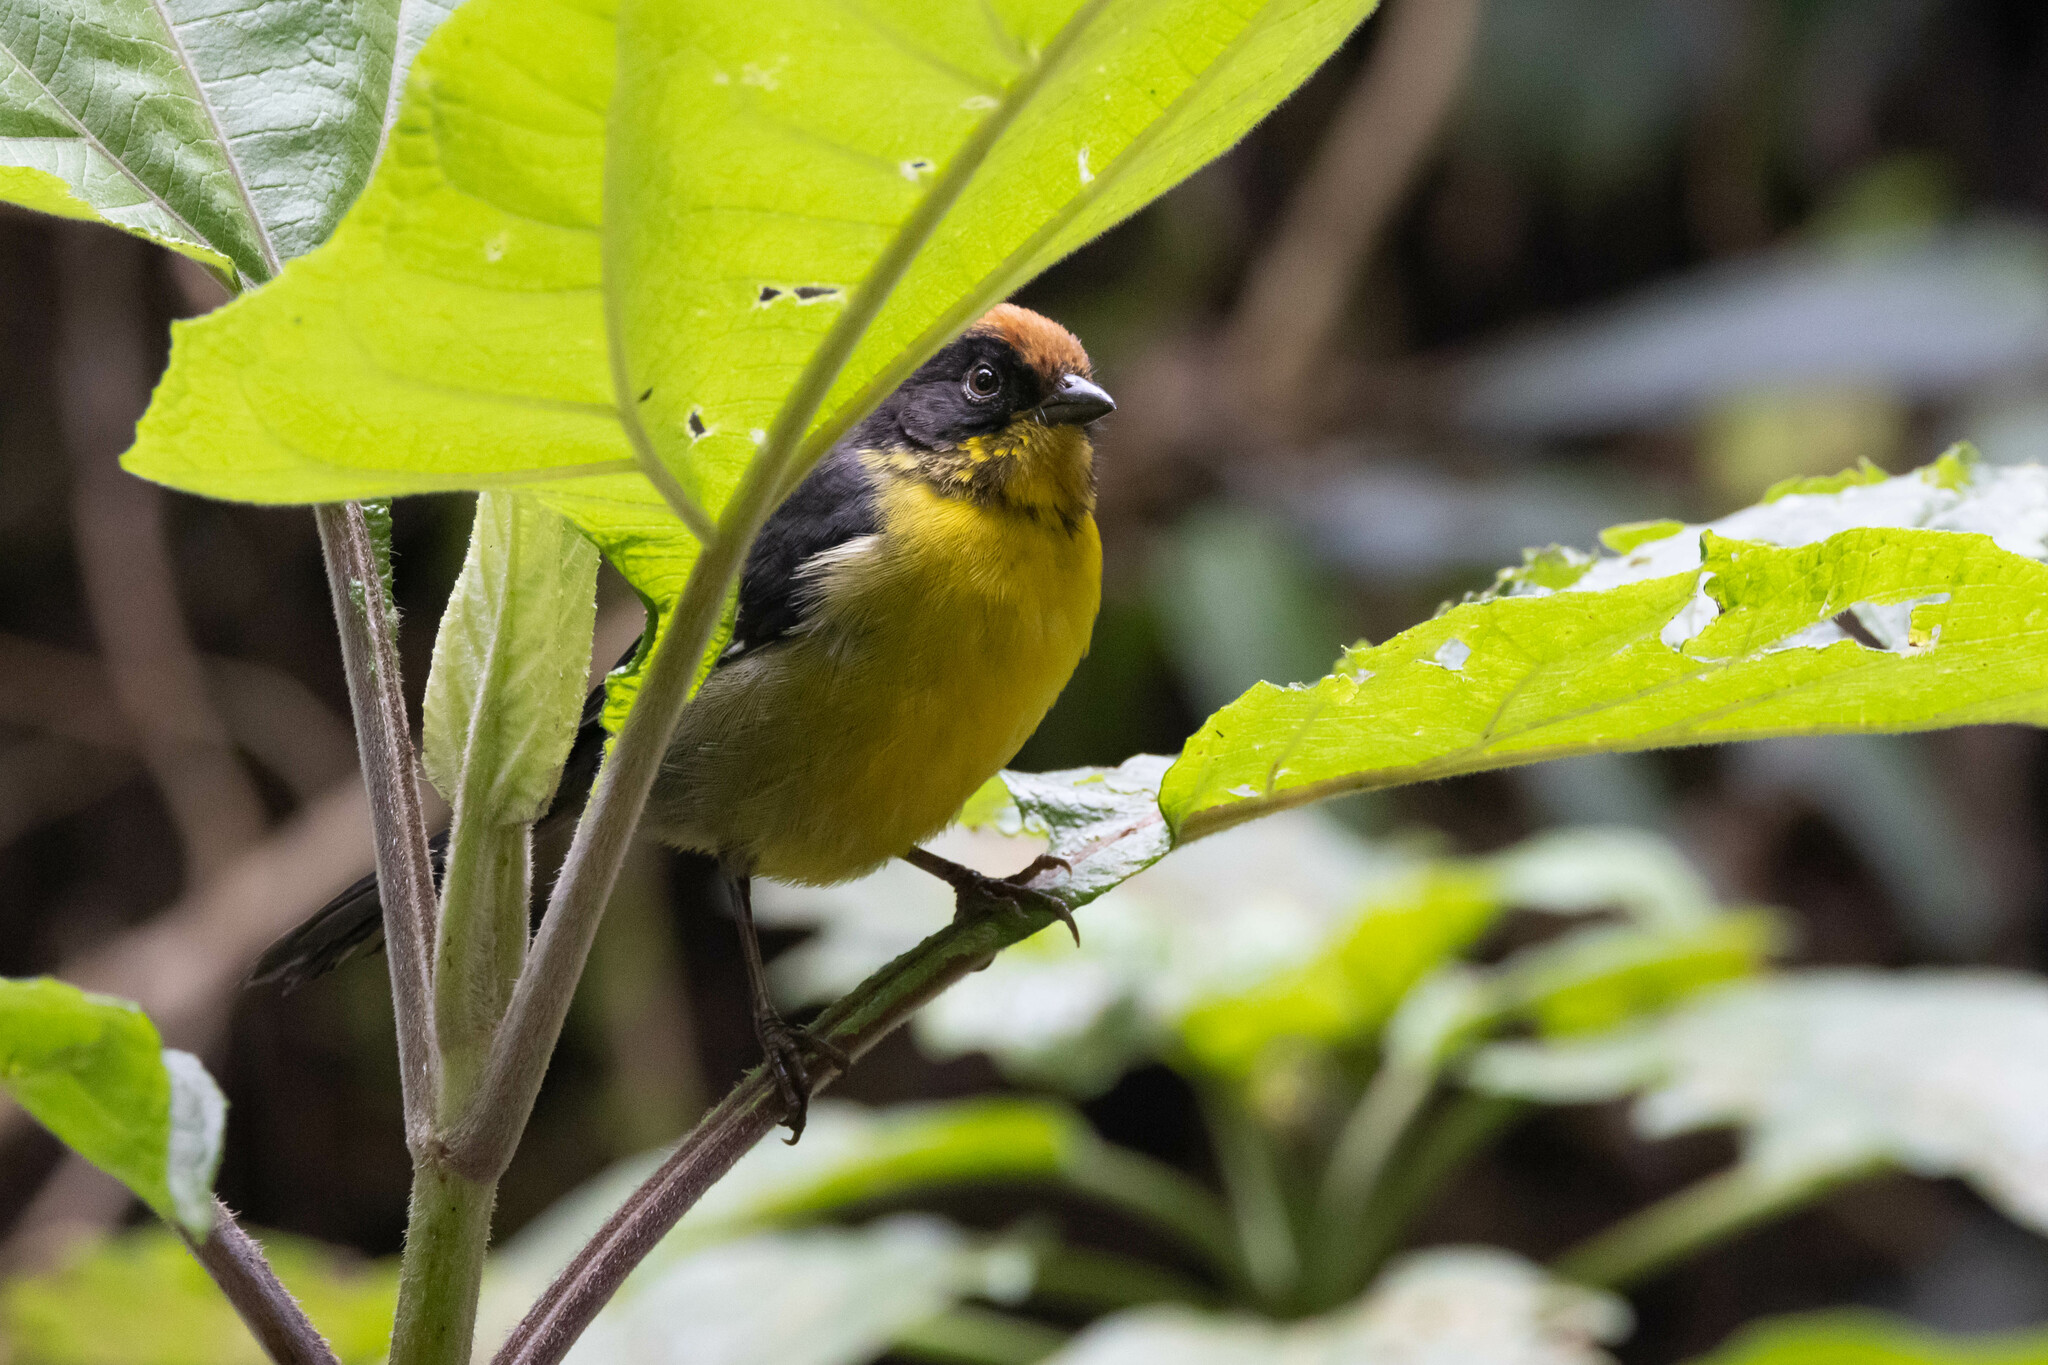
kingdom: Animalia
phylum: Chordata
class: Aves
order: Passeriformes
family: Passerellidae
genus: Atlapetes
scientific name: Atlapetes latinuchus
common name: Yellow-breasted brushfinch
